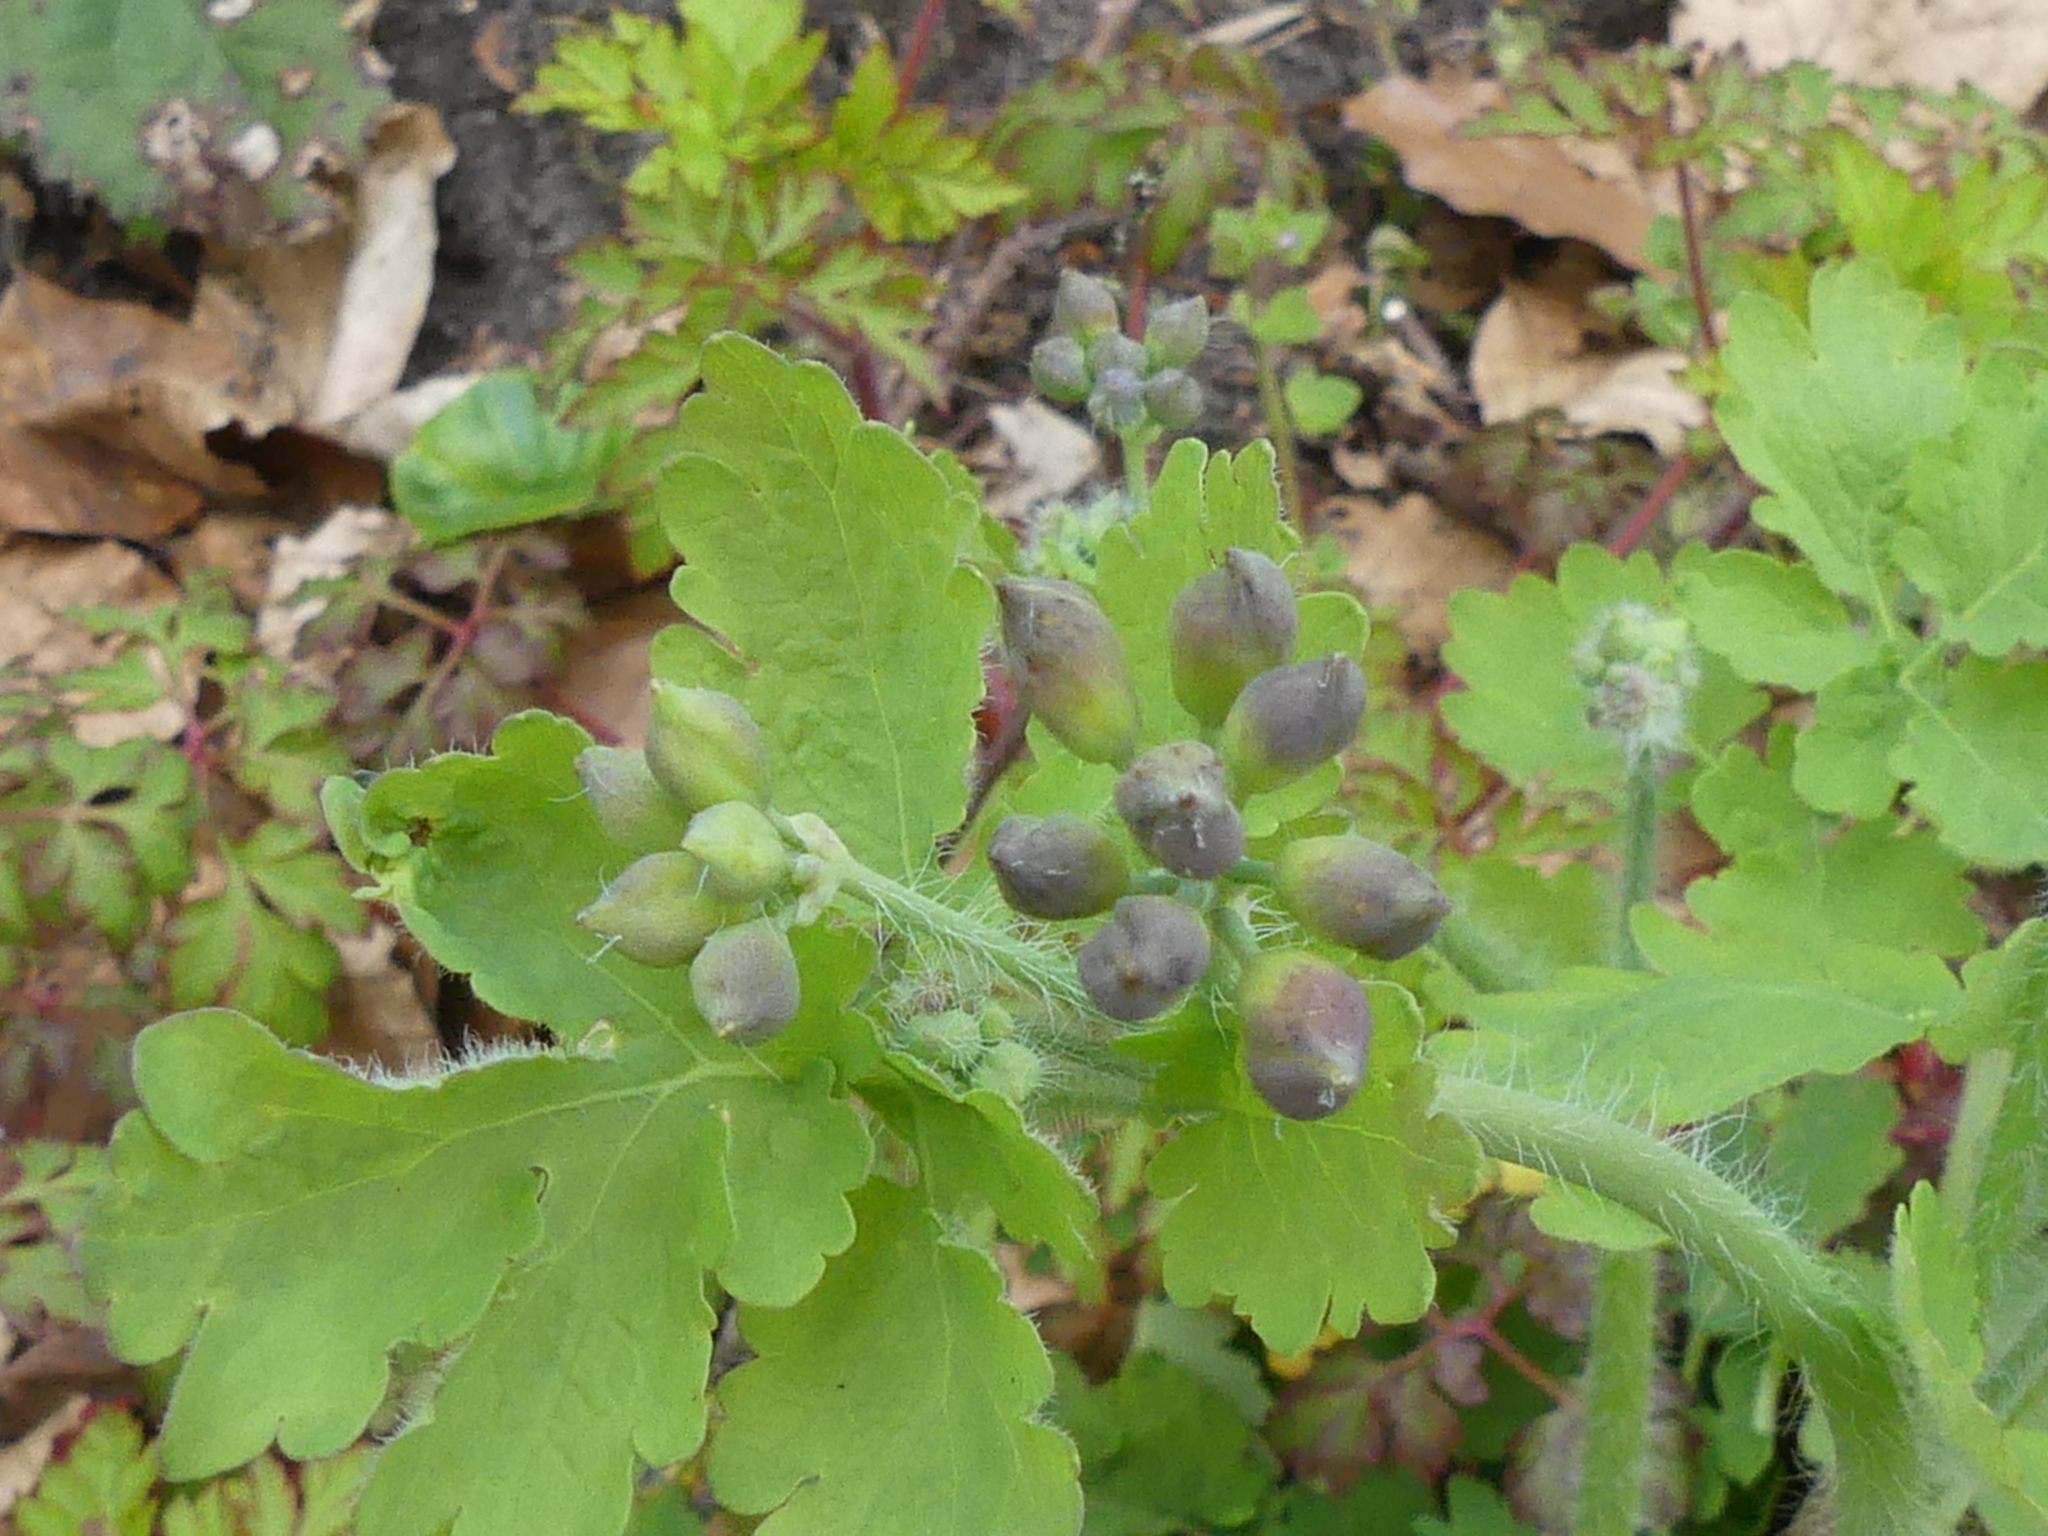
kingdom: Plantae
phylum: Tracheophyta
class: Magnoliopsida
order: Ranunculales
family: Papaveraceae
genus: Chelidonium
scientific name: Chelidonium majus
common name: Greater celandine
